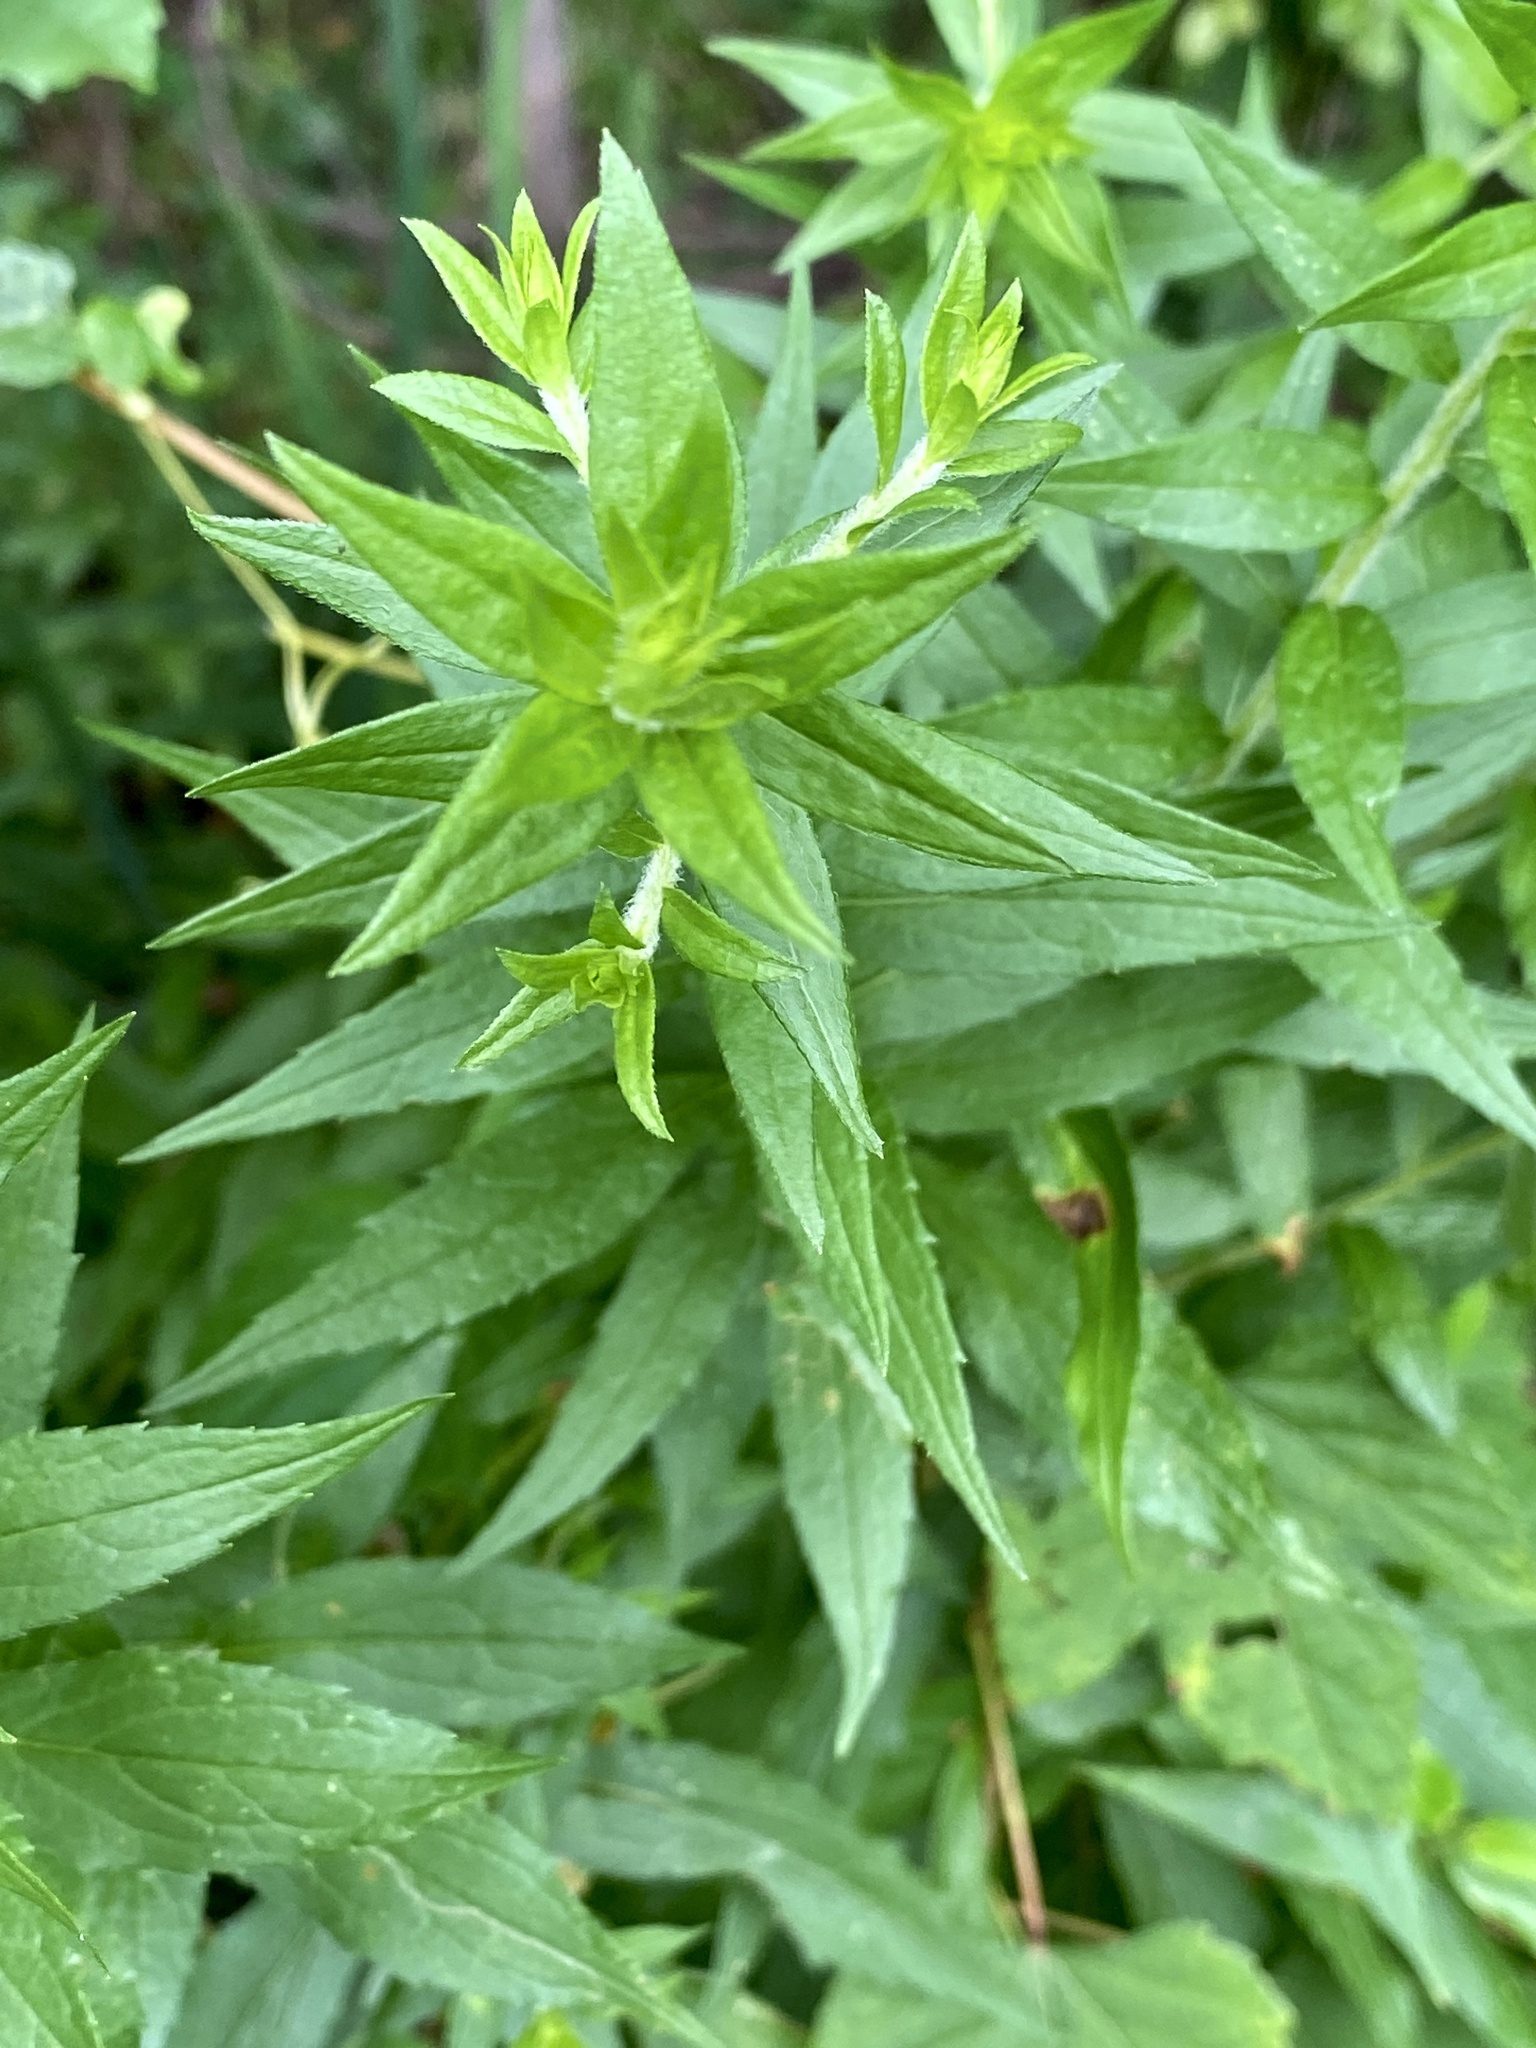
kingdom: Plantae
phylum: Tracheophyta
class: Magnoliopsida
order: Asterales
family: Asteraceae
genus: Solidago
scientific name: Solidago rugosa
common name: Rough-stemmed goldenrod
